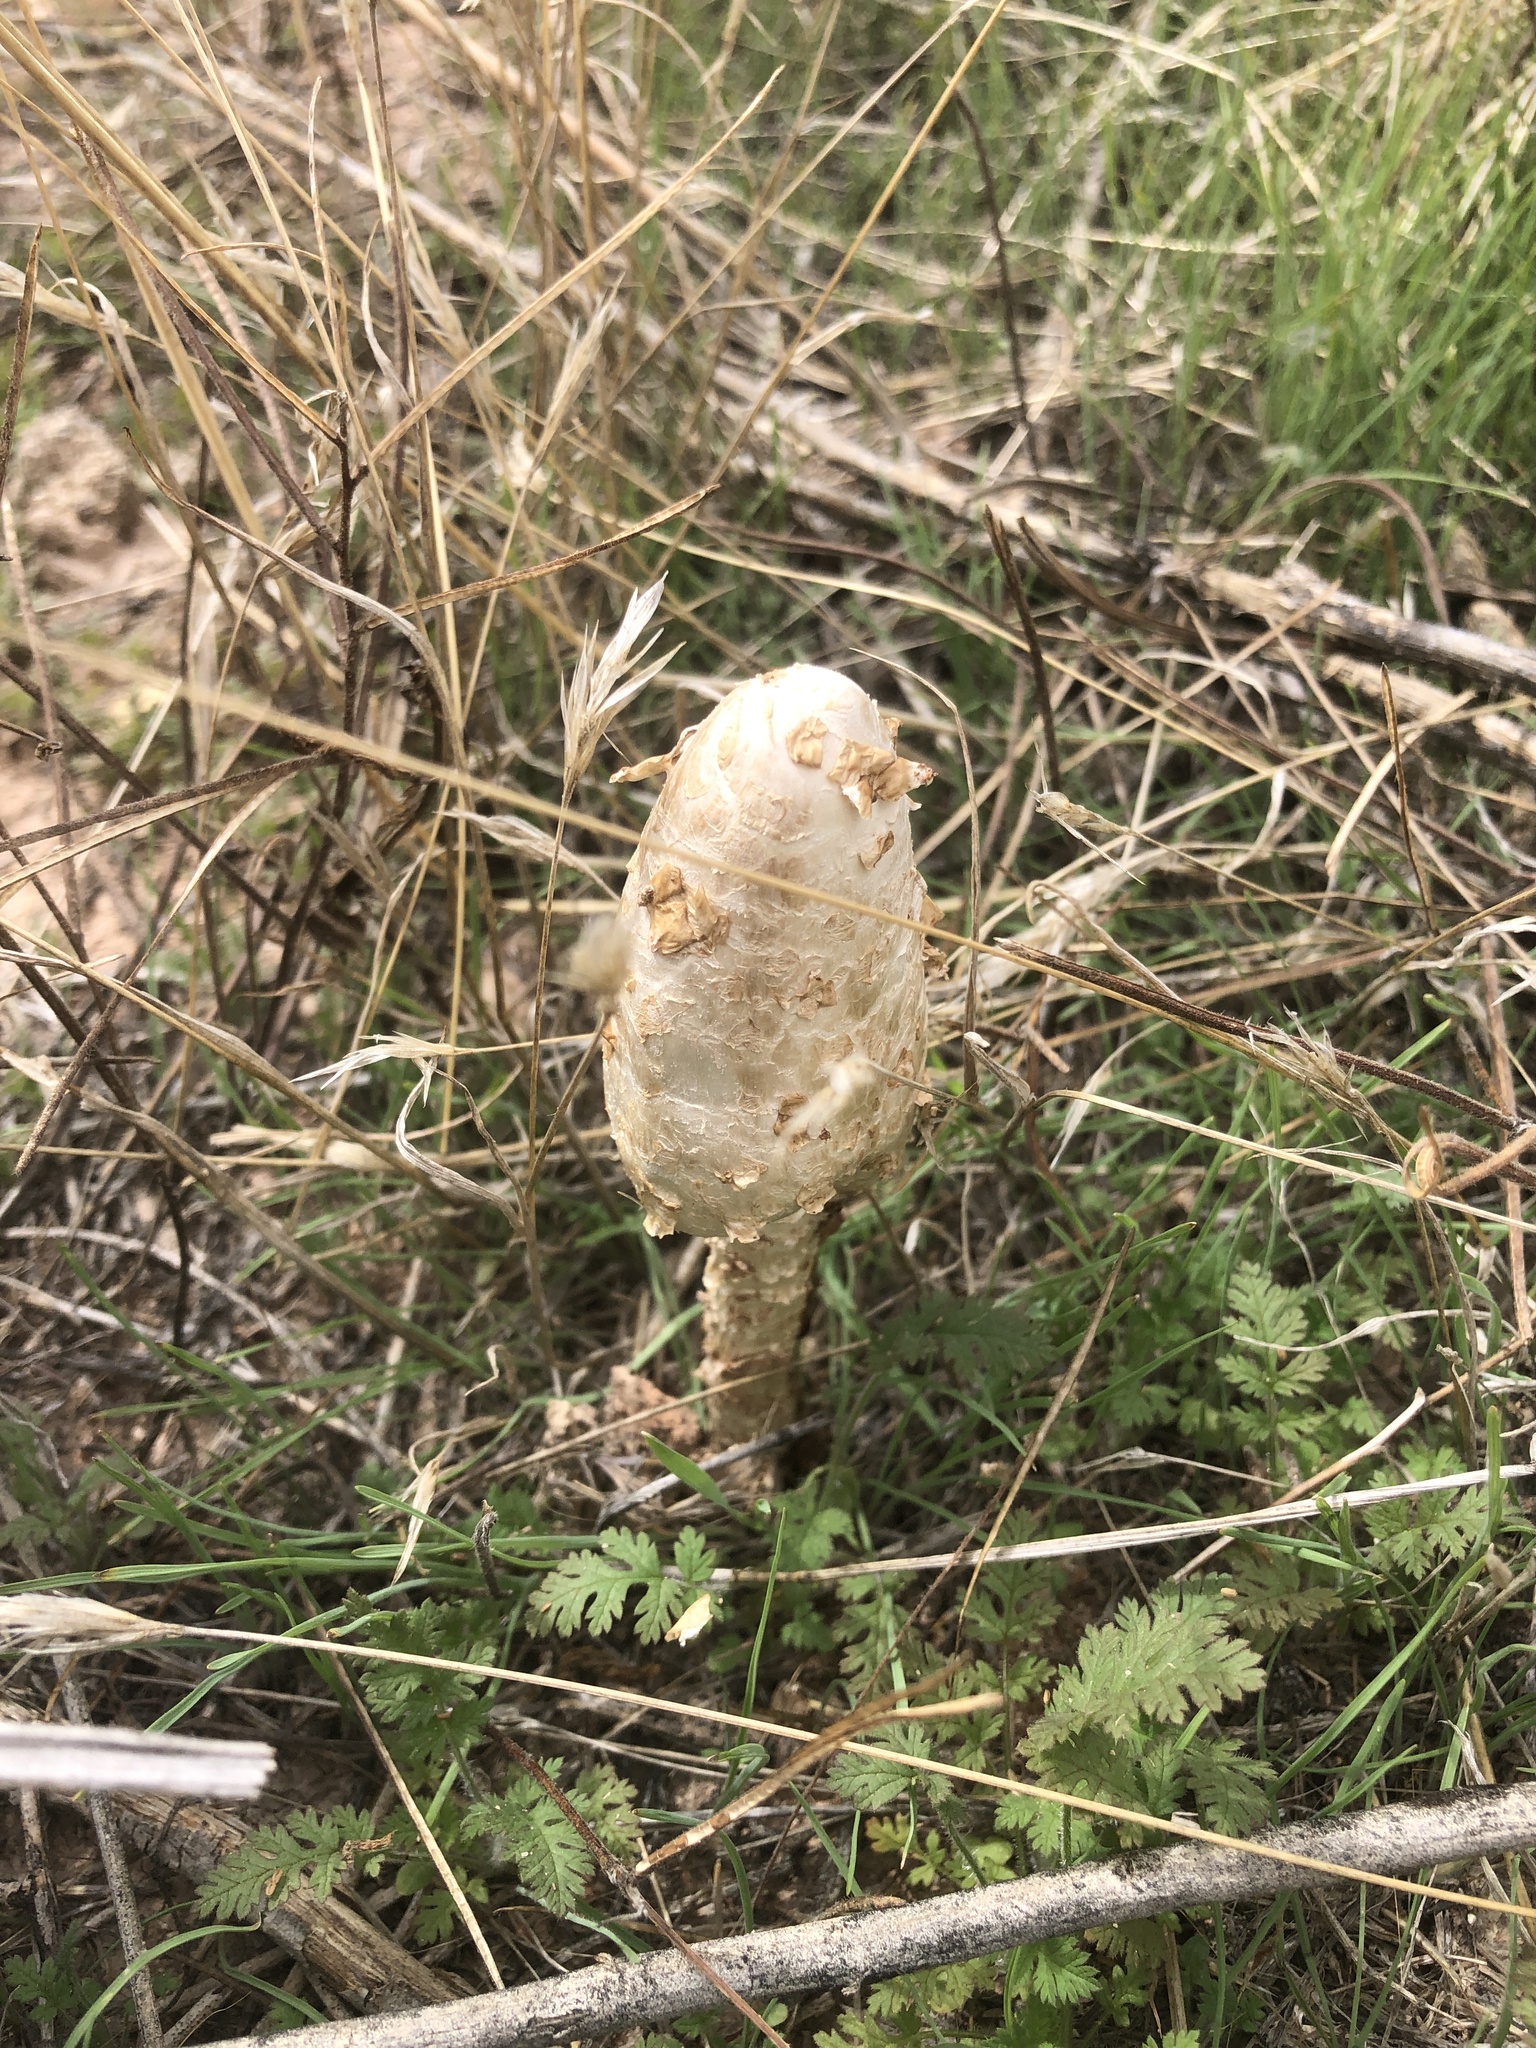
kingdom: Fungi
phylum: Basidiomycota
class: Agaricomycetes
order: Agaricales
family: Agaricaceae
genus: Podaxis
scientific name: Podaxis pistillaris
